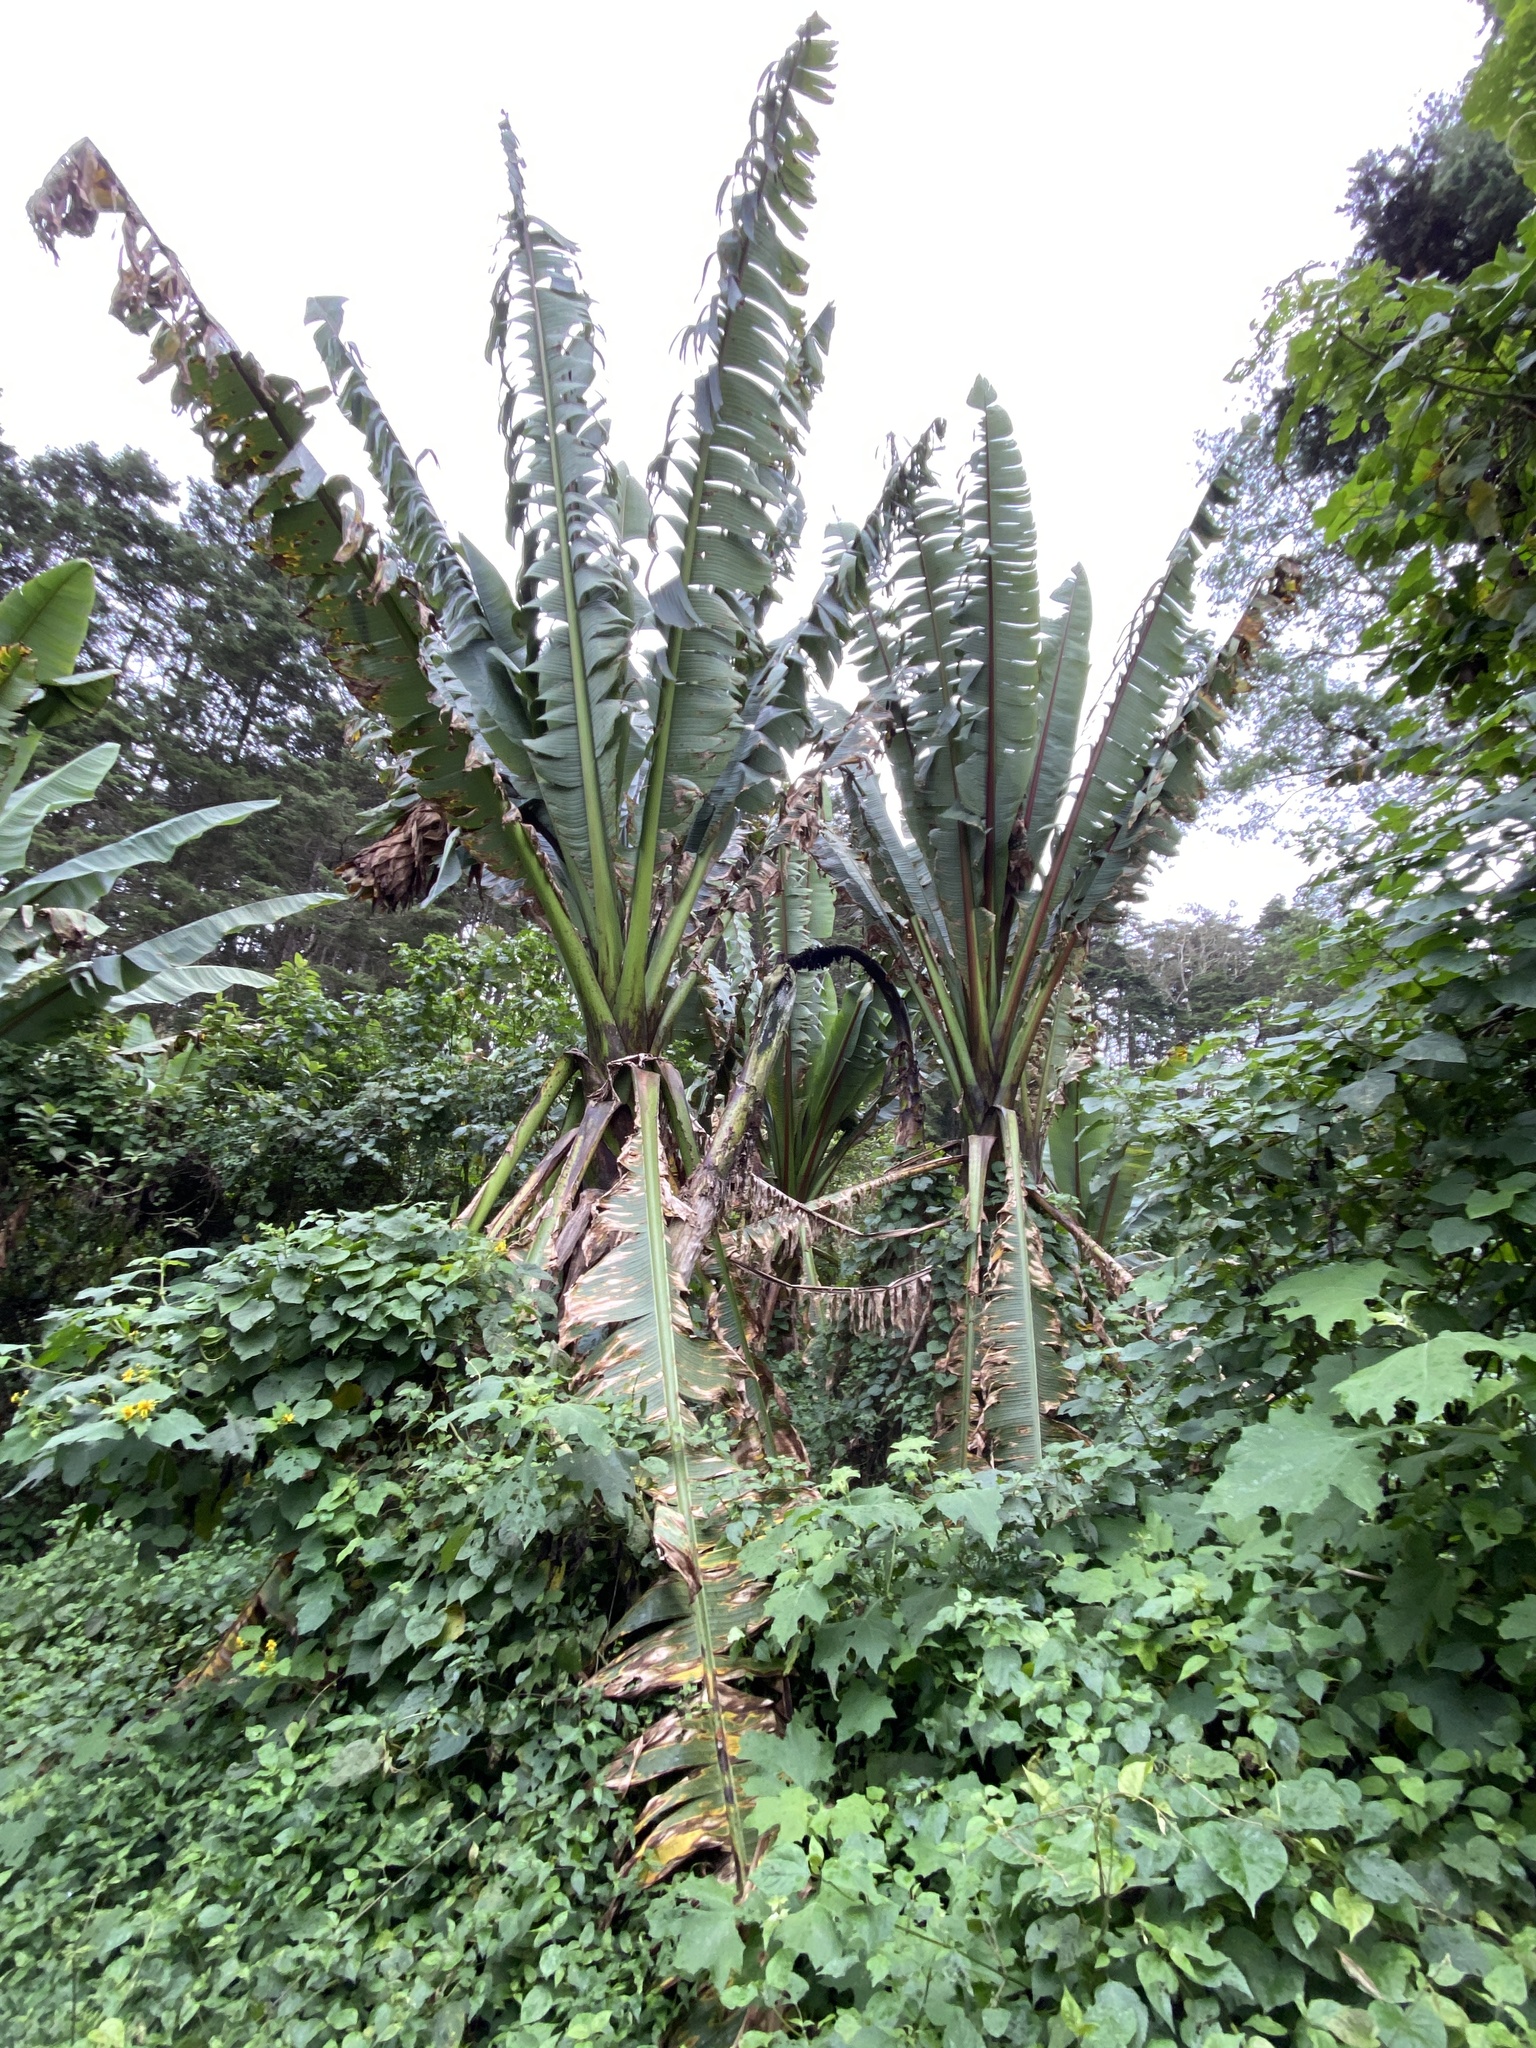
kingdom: Plantae
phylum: Tracheophyta
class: Liliopsida
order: Zingiberales
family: Musaceae
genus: Ensete
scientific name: Ensete ventricosum
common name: Abyssinian banana
